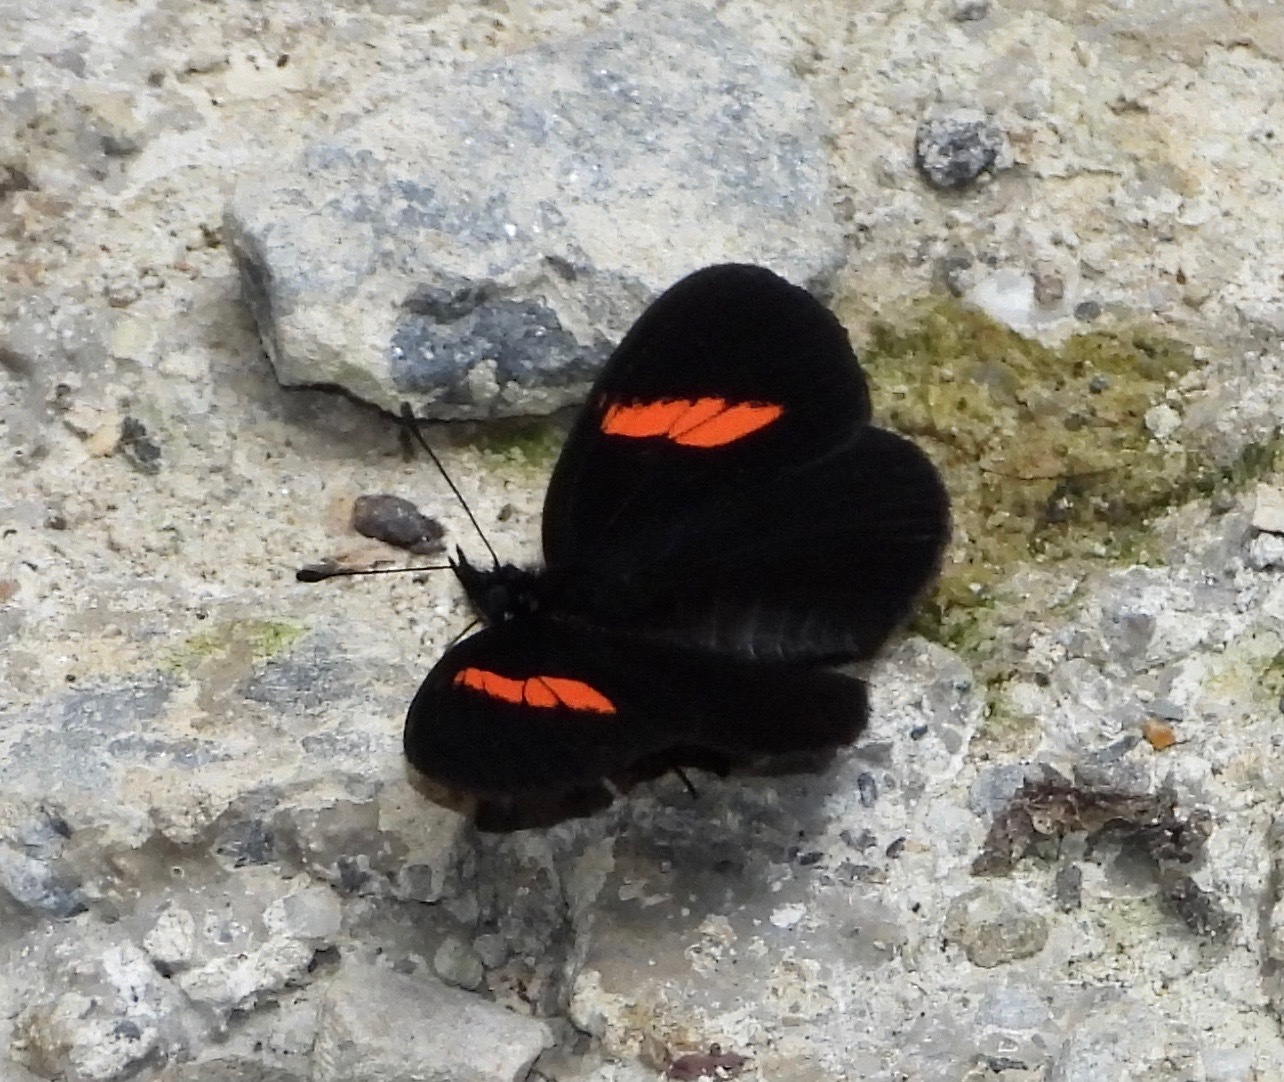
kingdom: Animalia
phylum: Arthropoda
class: Insecta
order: Lepidoptera
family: Nymphalidae
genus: Castilia
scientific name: Castilia castilla
